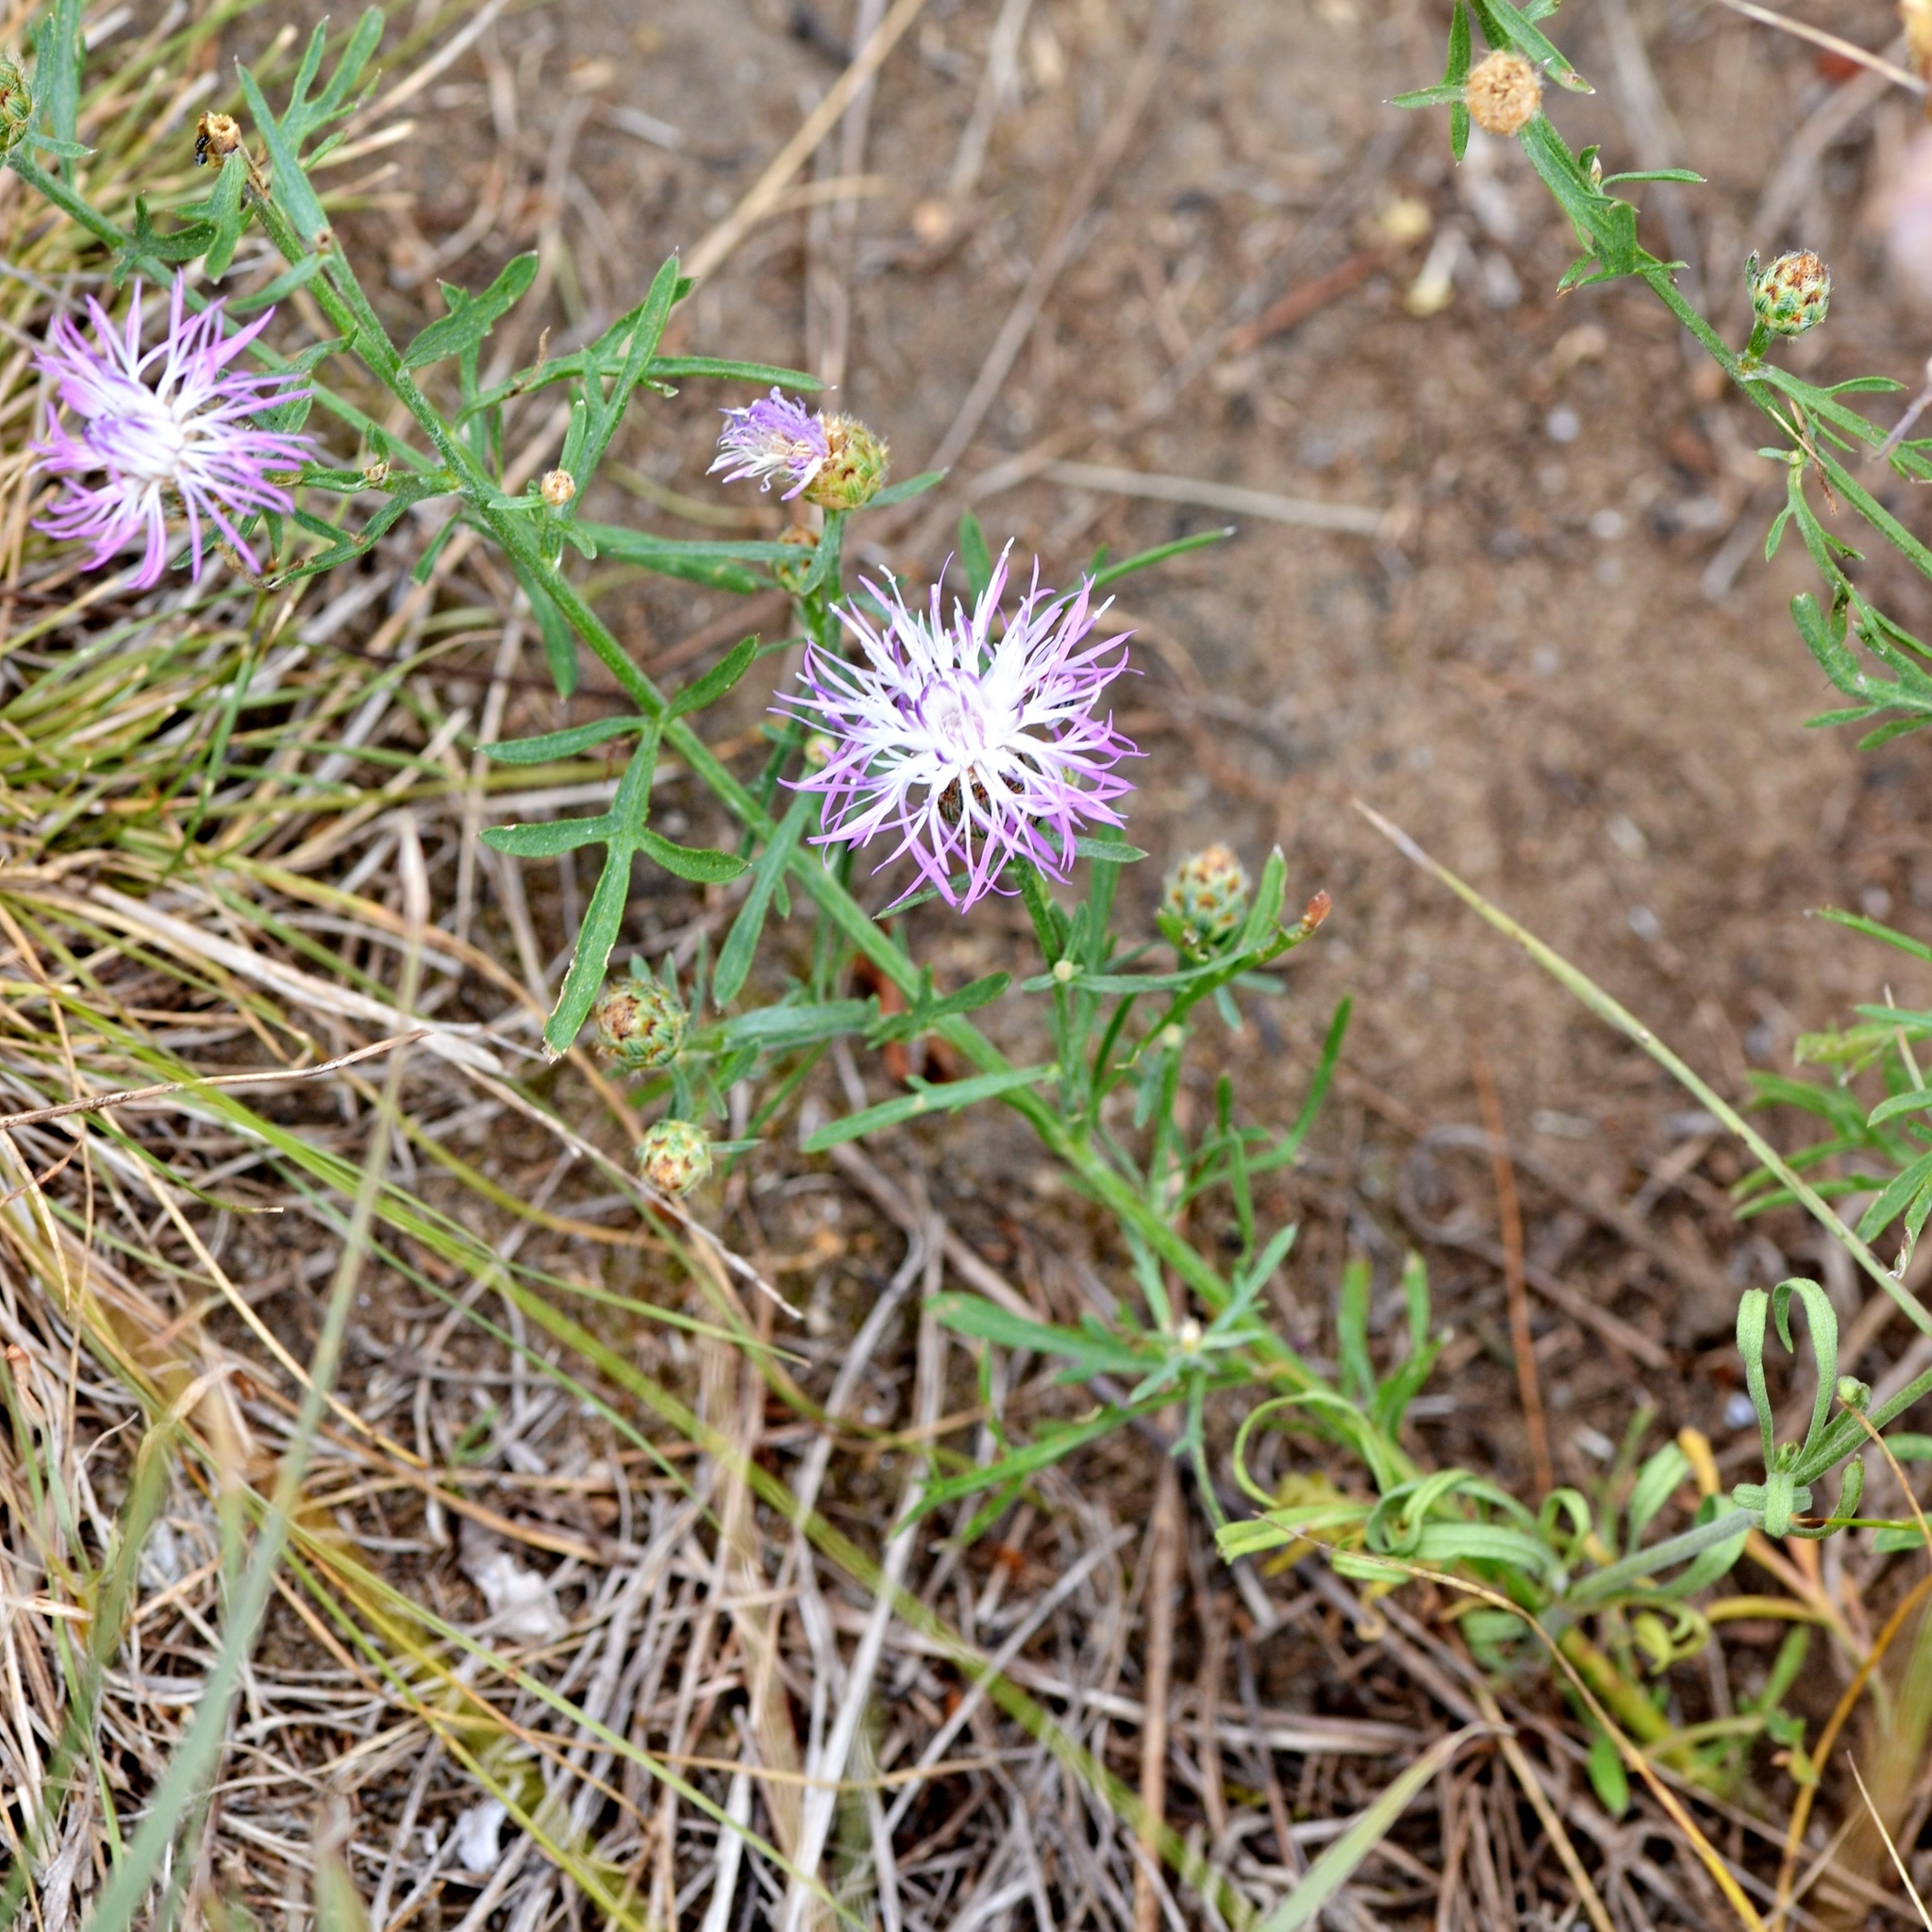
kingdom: Plantae
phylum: Tracheophyta
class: Magnoliopsida
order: Asterales
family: Asteraceae
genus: Centaurea
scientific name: Centaurea stoebe
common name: Spotted knapweed
